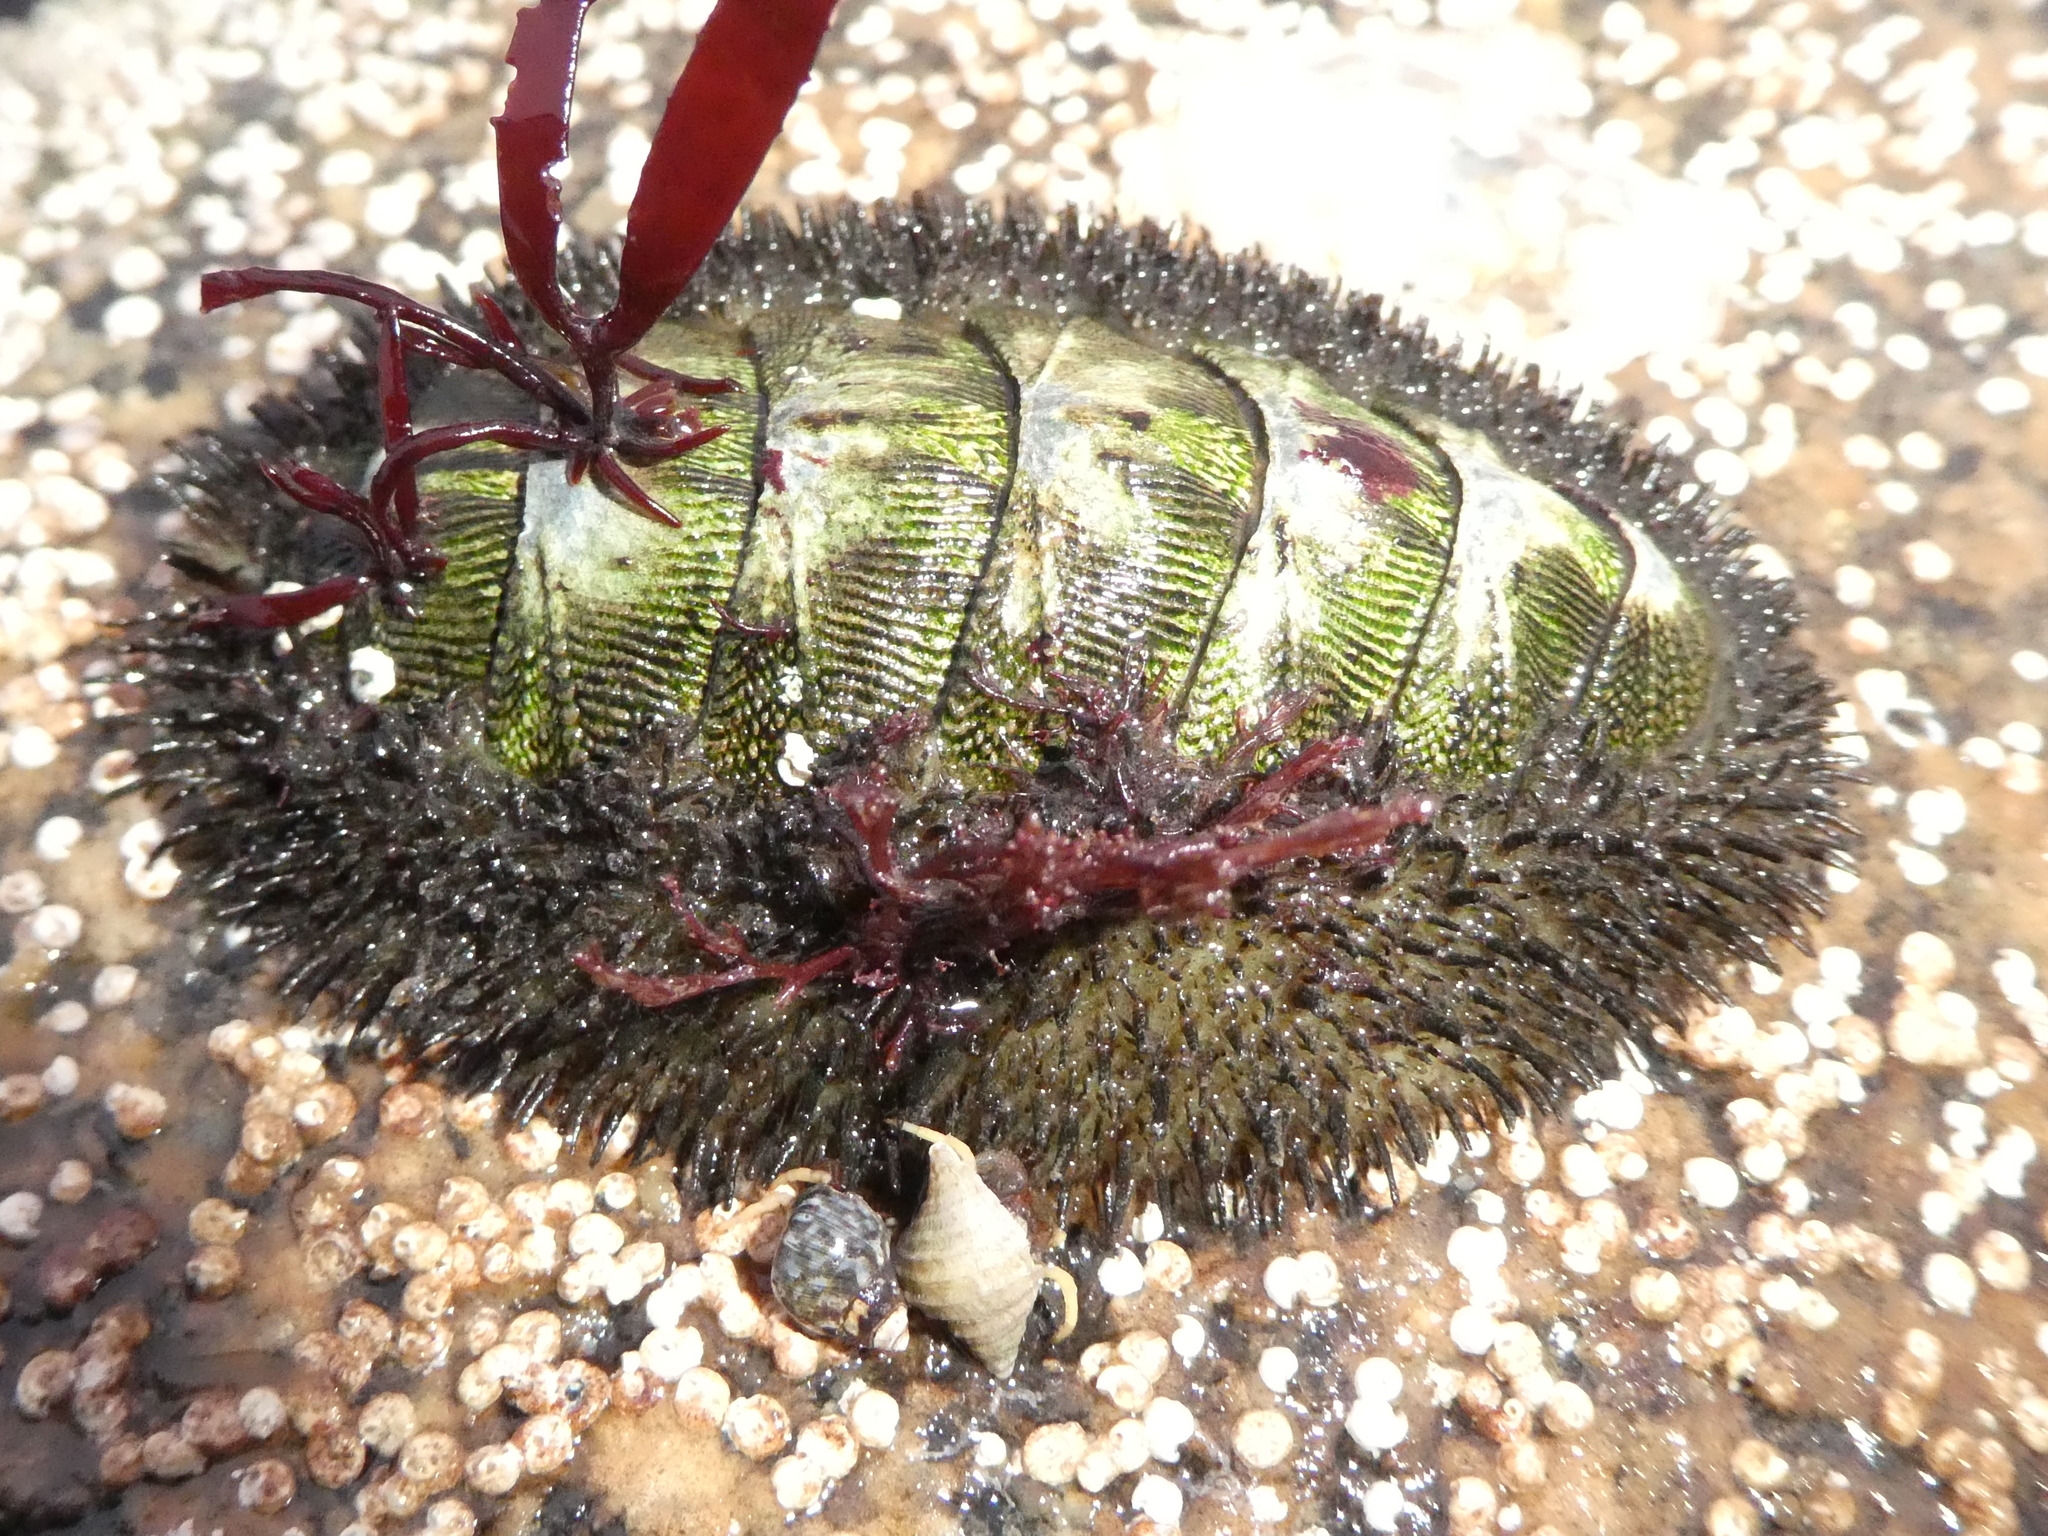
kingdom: Animalia
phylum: Mollusca
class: Polyplacophora
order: Chitonida
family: Mopaliidae
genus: Mopalia
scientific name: Mopalia muscosa
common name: Mossy chiton
